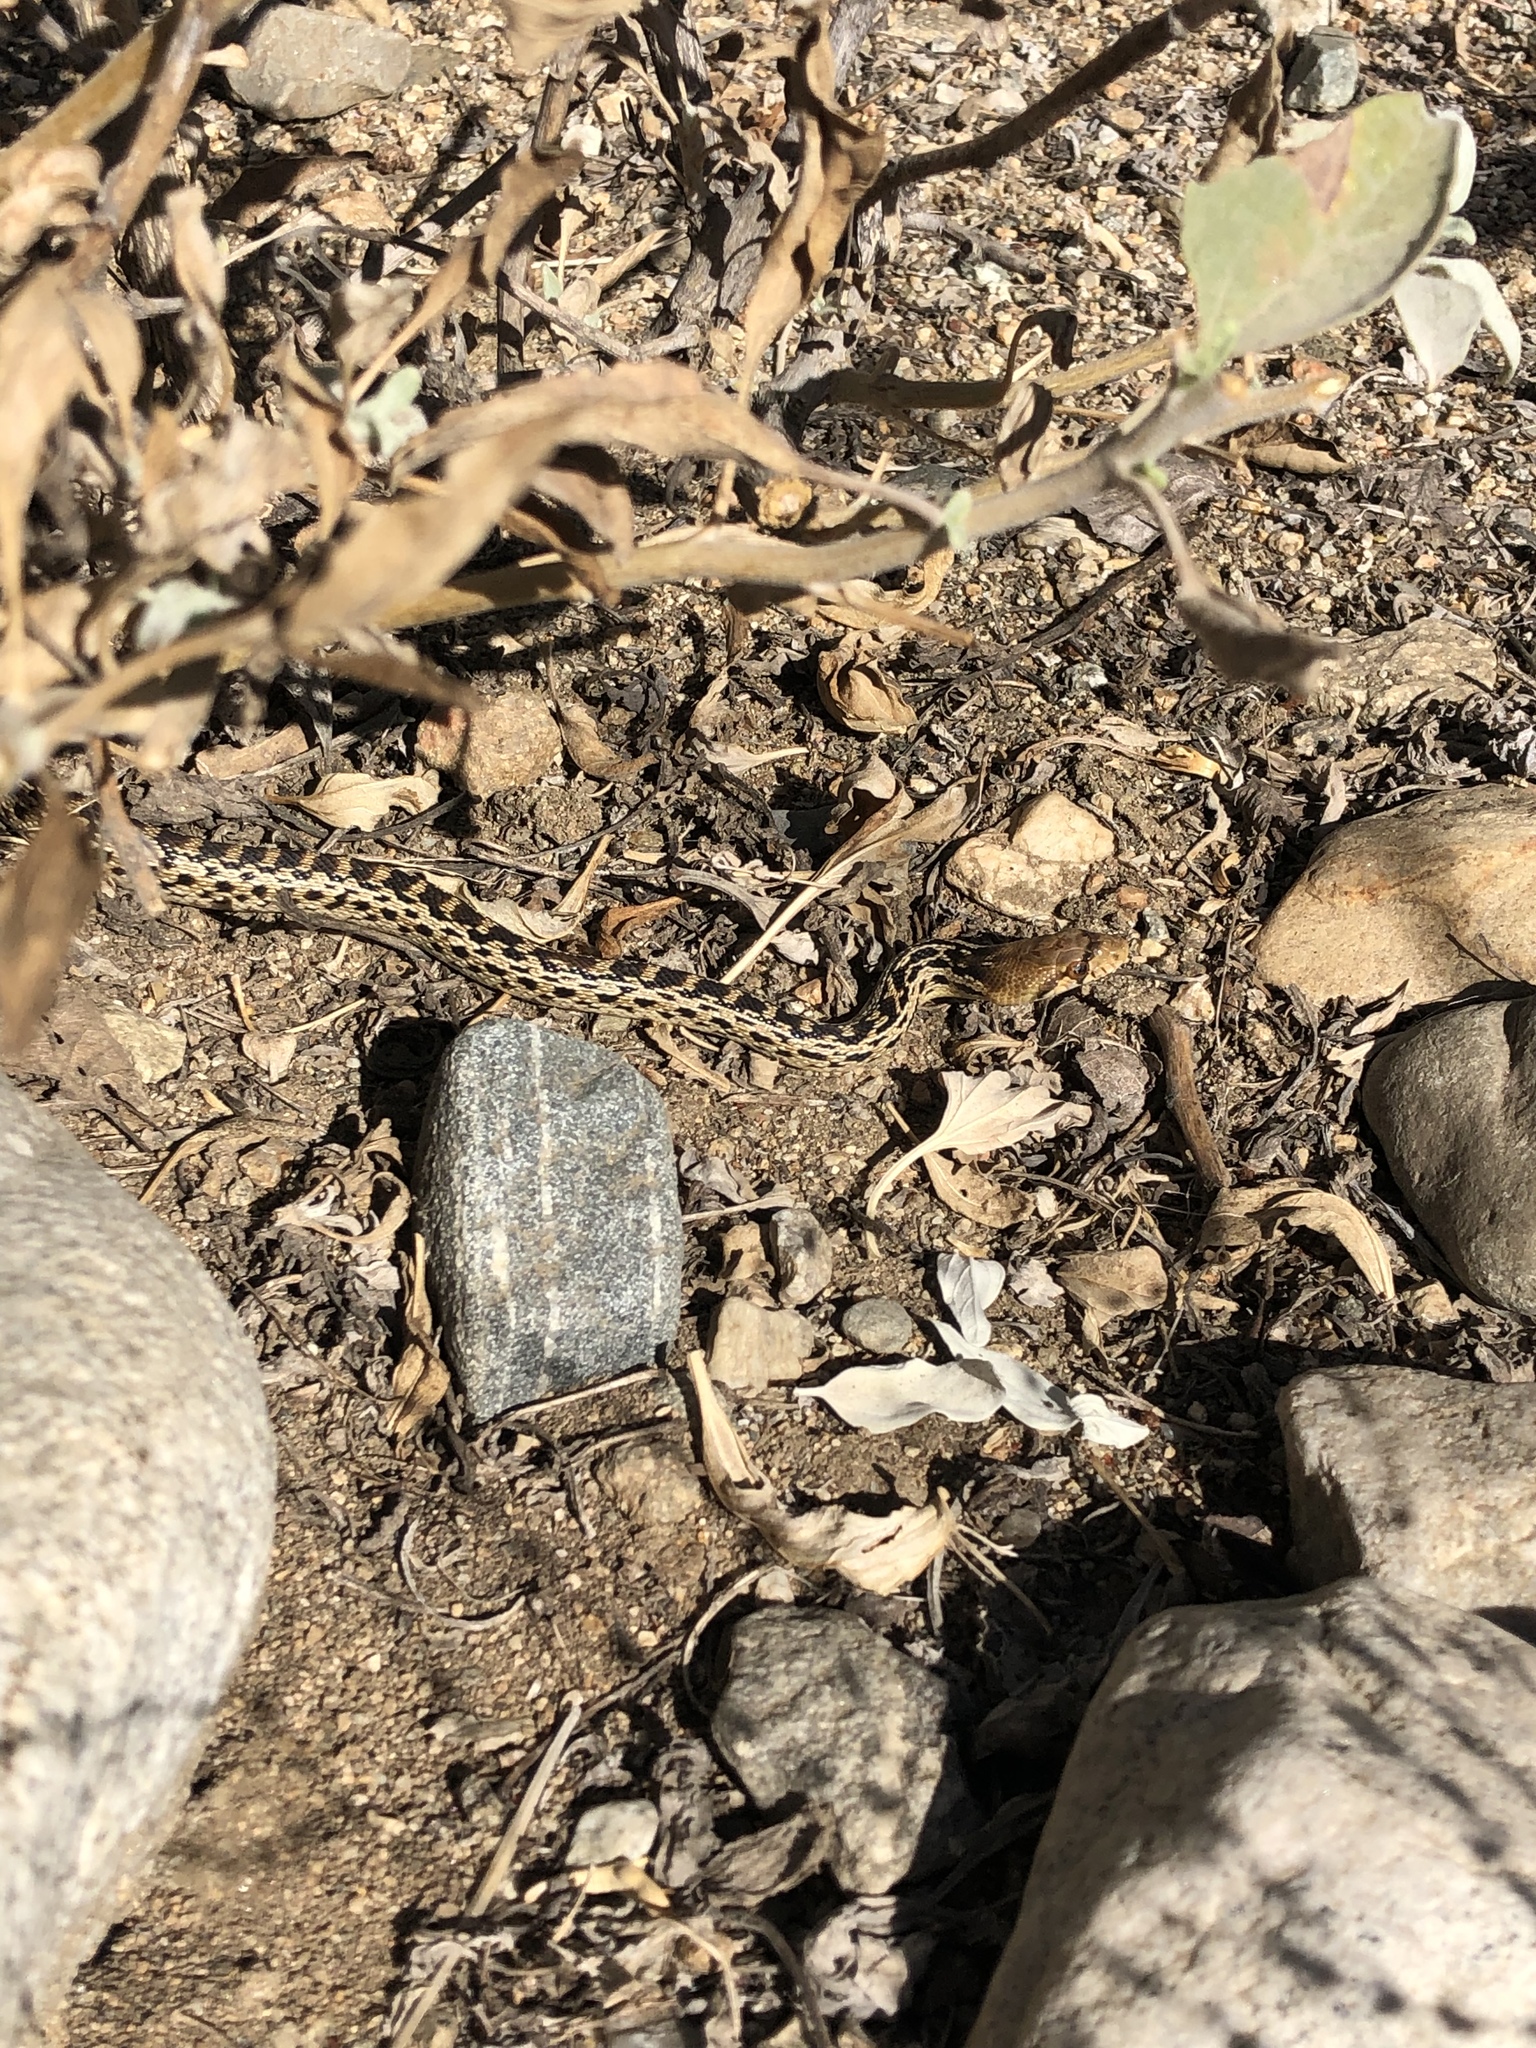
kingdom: Animalia
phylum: Chordata
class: Squamata
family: Colubridae
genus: Pituophis
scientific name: Pituophis catenifer
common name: Gopher snake
